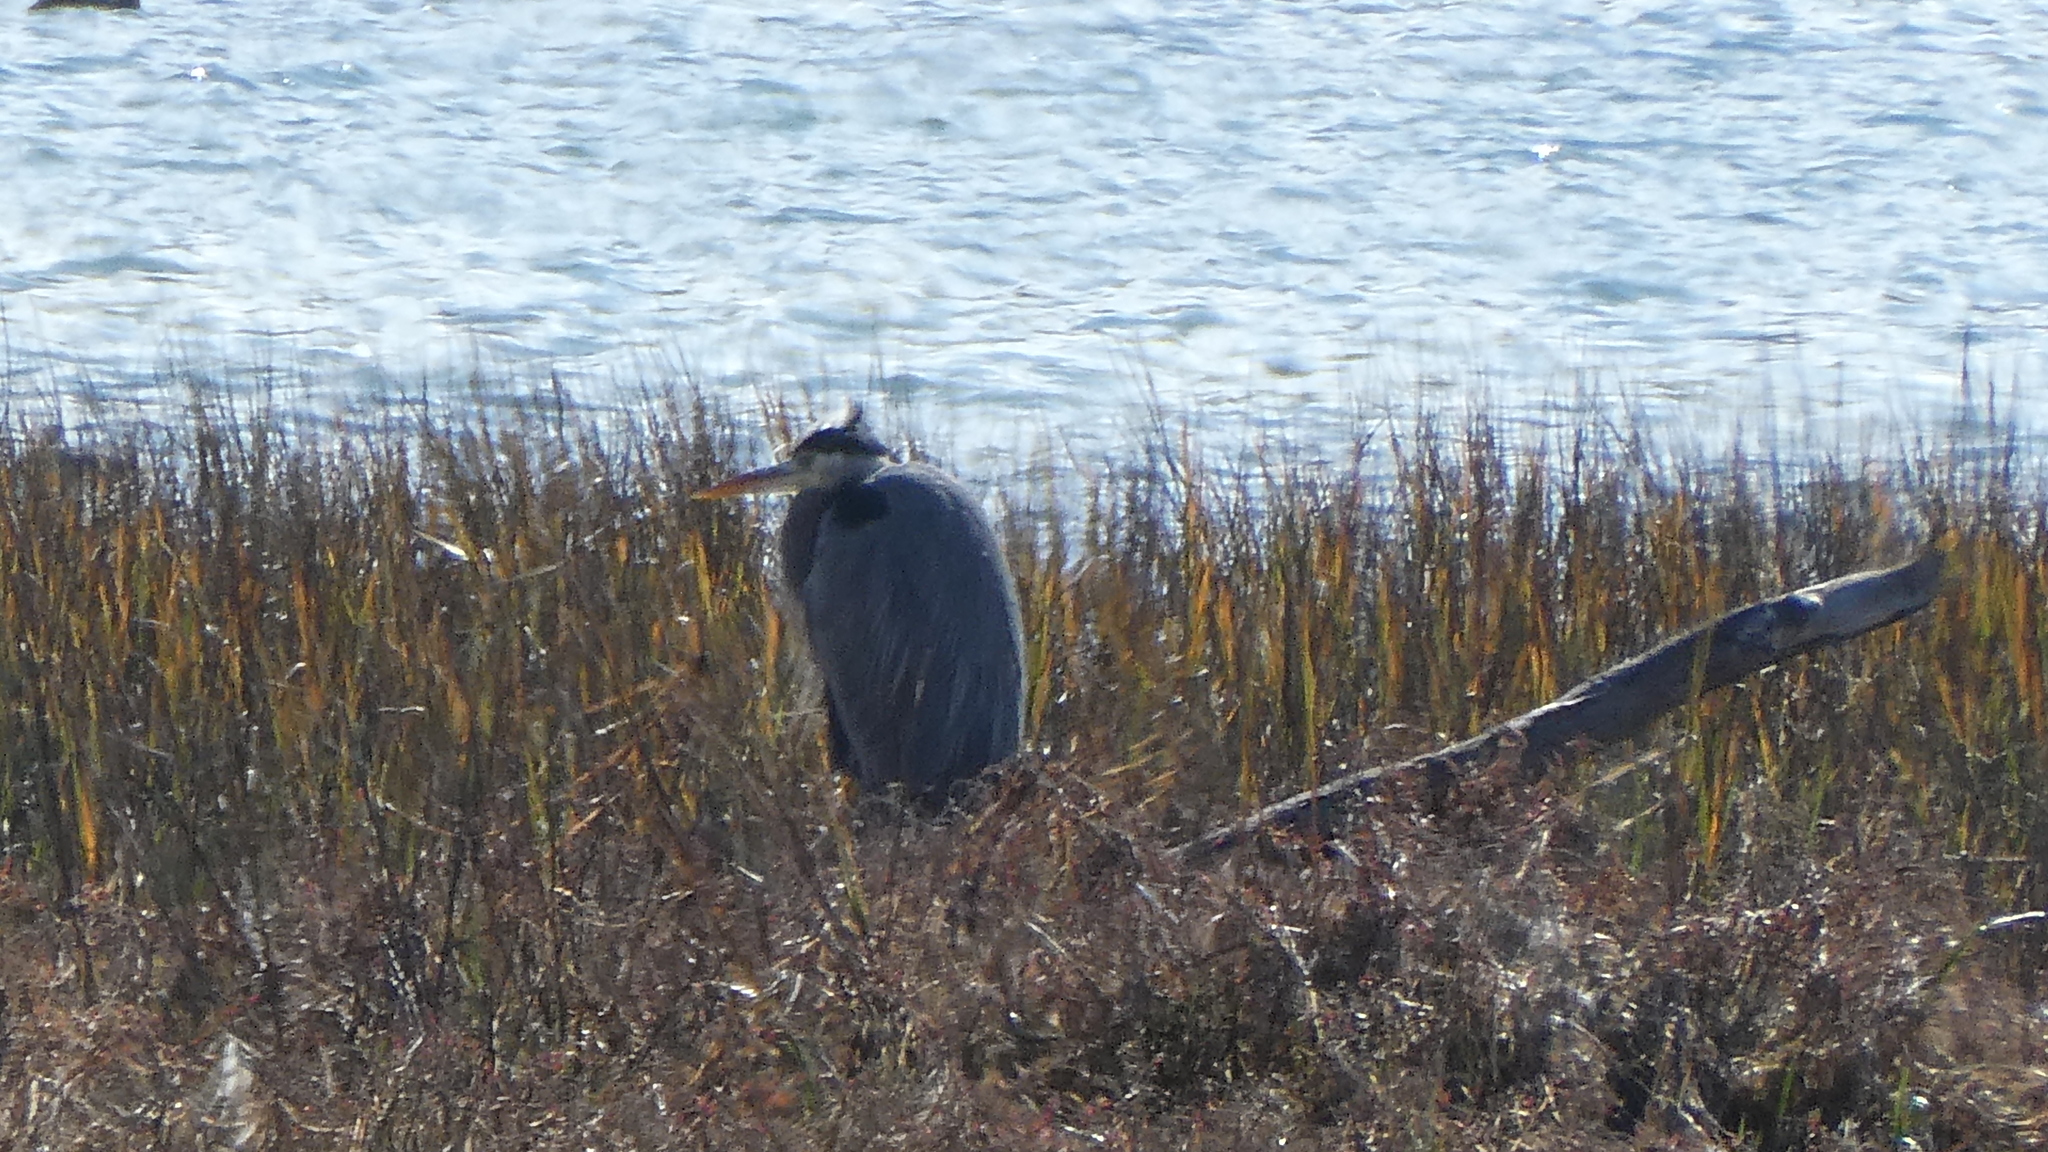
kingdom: Animalia
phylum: Chordata
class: Aves
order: Pelecaniformes
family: Ardeidae
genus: Ardea
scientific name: Ardea herodias
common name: Great blue heron
